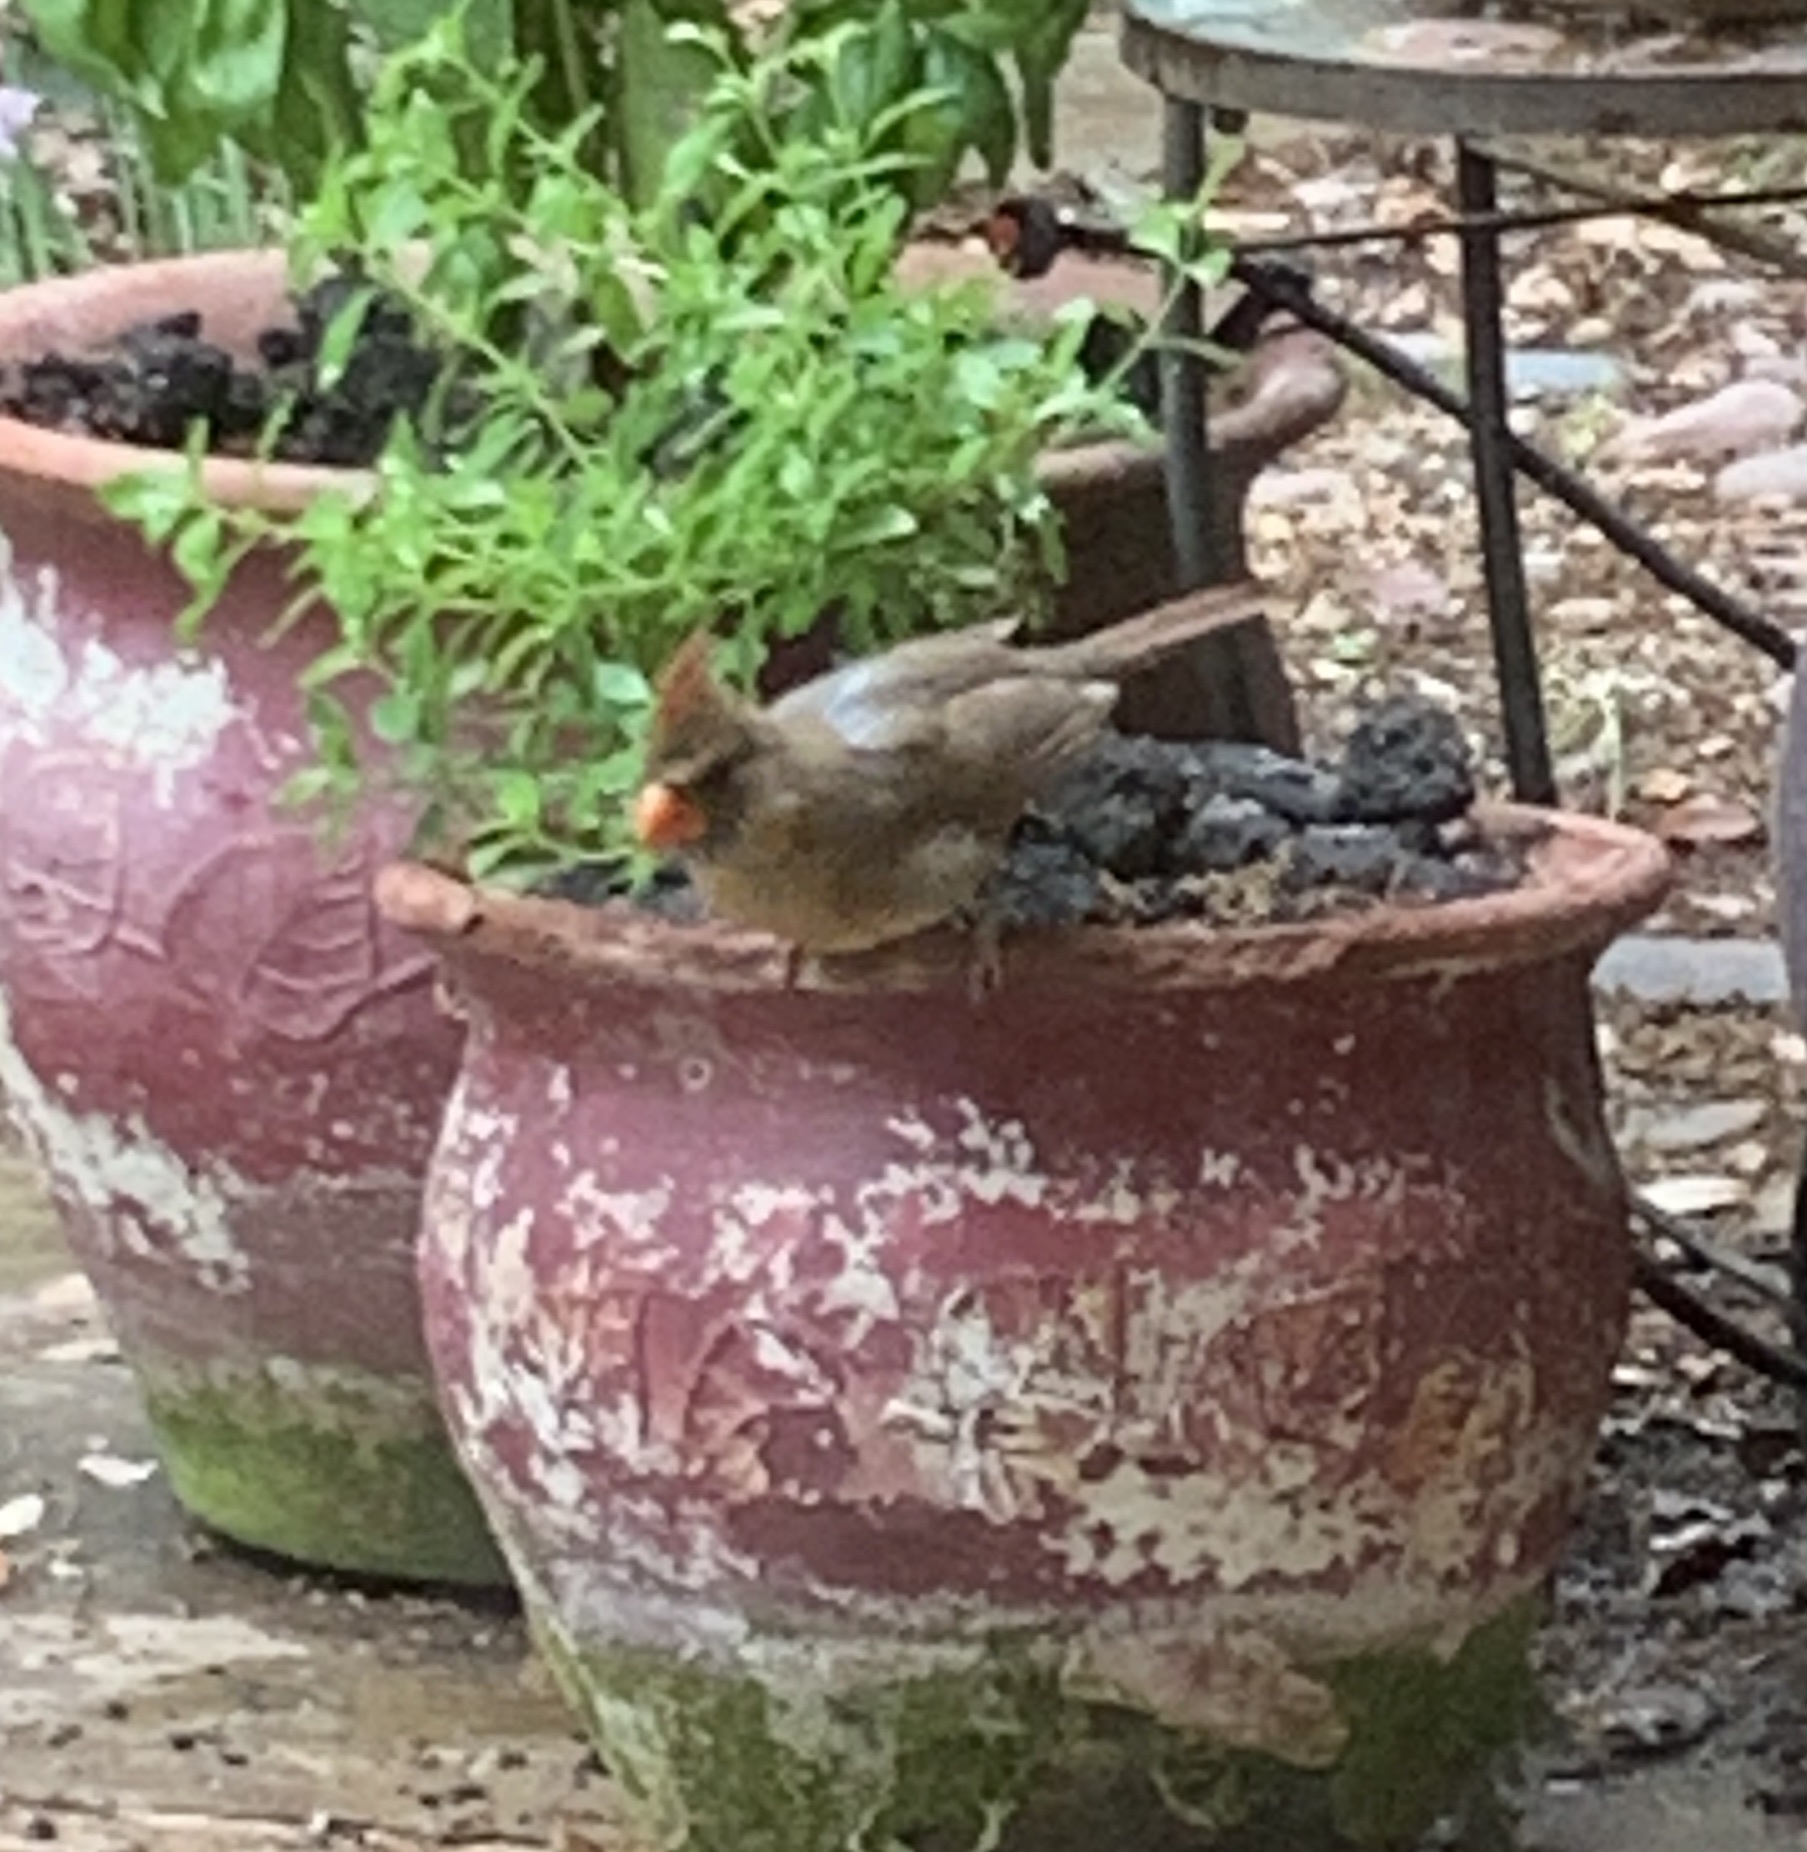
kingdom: Animalia
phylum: Chordata
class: Aves
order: Passeriformes
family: Cardinalidae
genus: Cardinalis
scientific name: Cardinalis cardinalis
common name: Northern cardinal
